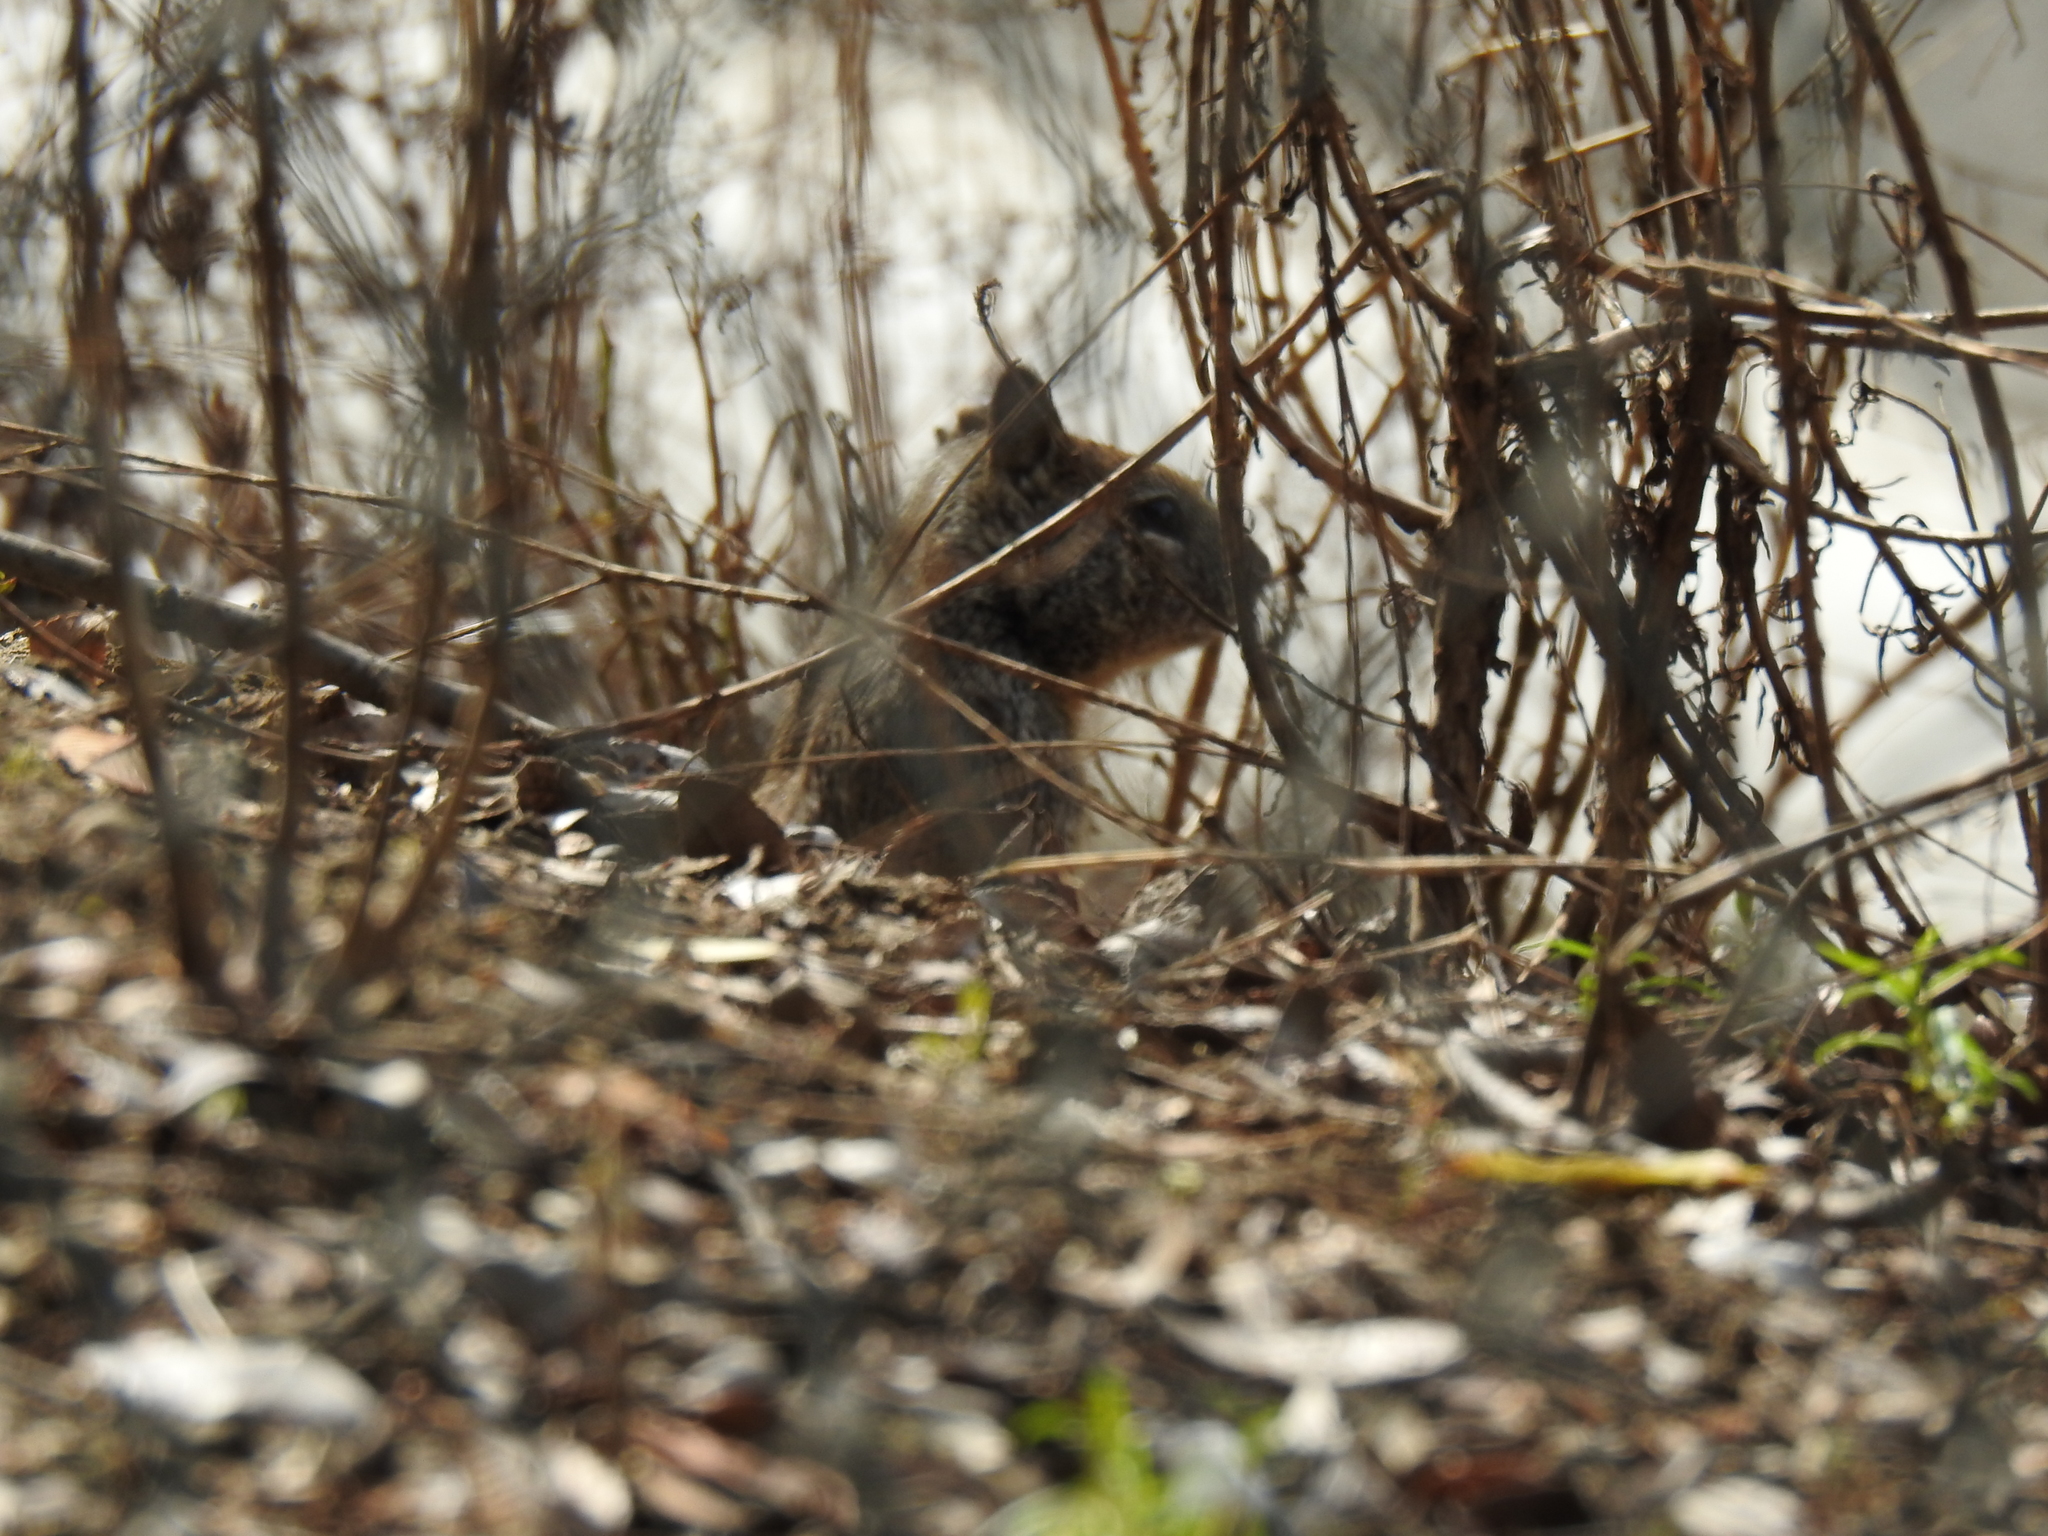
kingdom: Animalia
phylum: Chordata
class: Mammalia
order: Rodentia
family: Sciuridae
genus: Otospermophilus
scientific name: Otospermophilus beecheyi
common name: California ground squirrel
